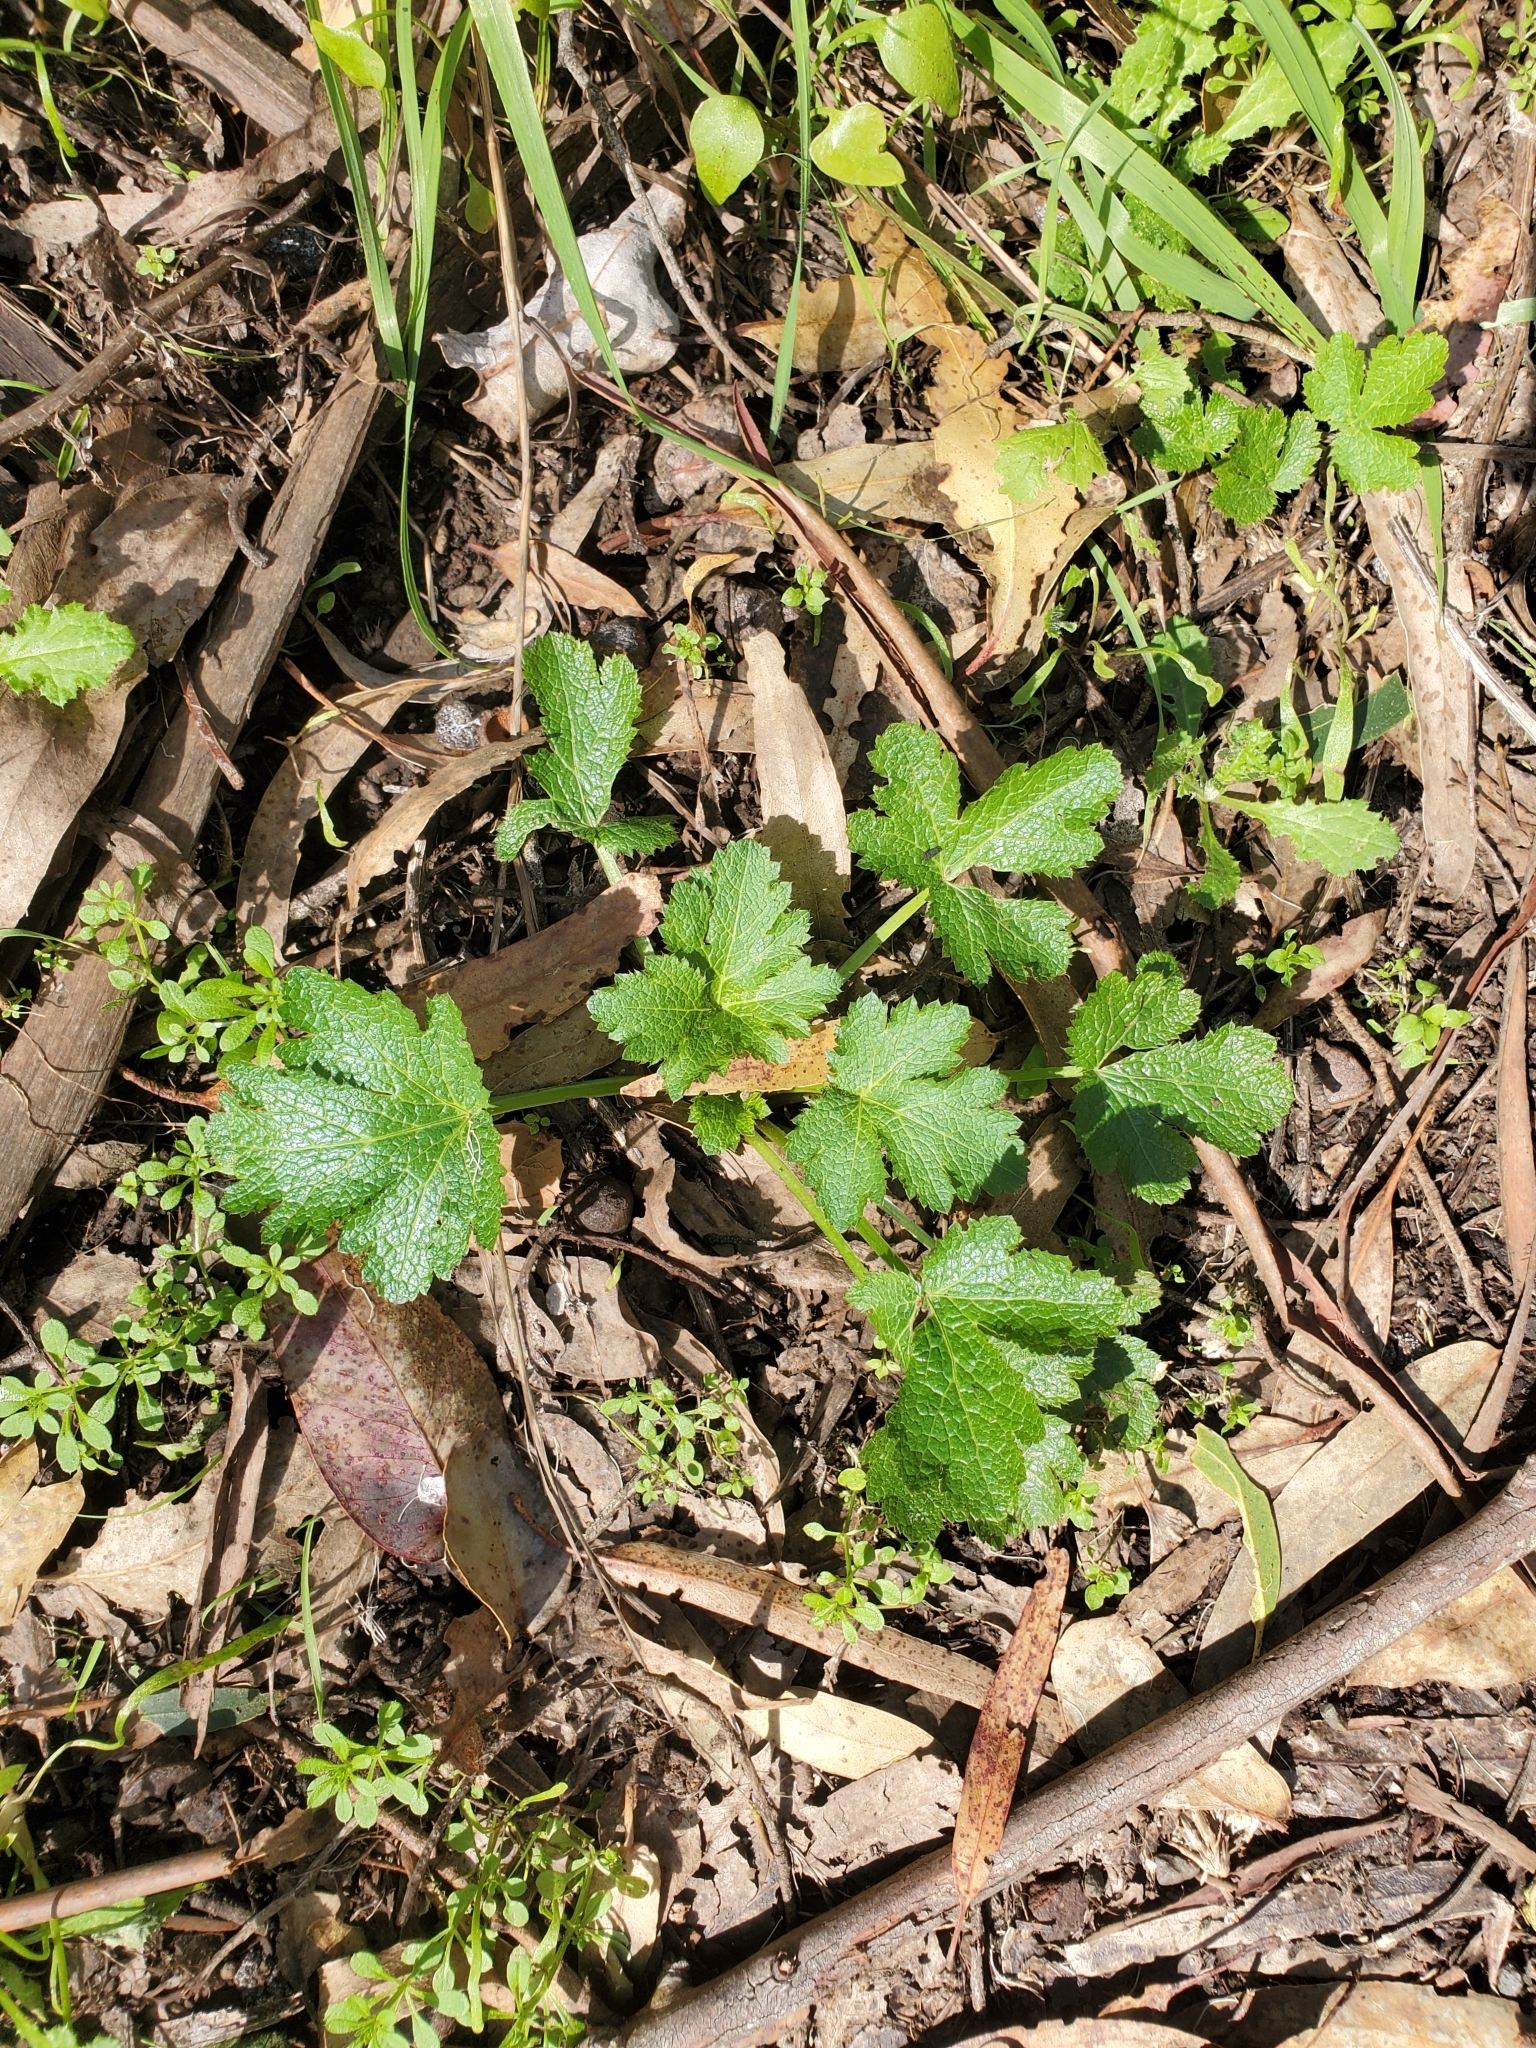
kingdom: Plantae
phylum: Tracheophyta
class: Magnoliopsida
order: Apiales
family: Apiaceae
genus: Sanicula
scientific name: Sanicula crassicaulis
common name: Western snakeroot
